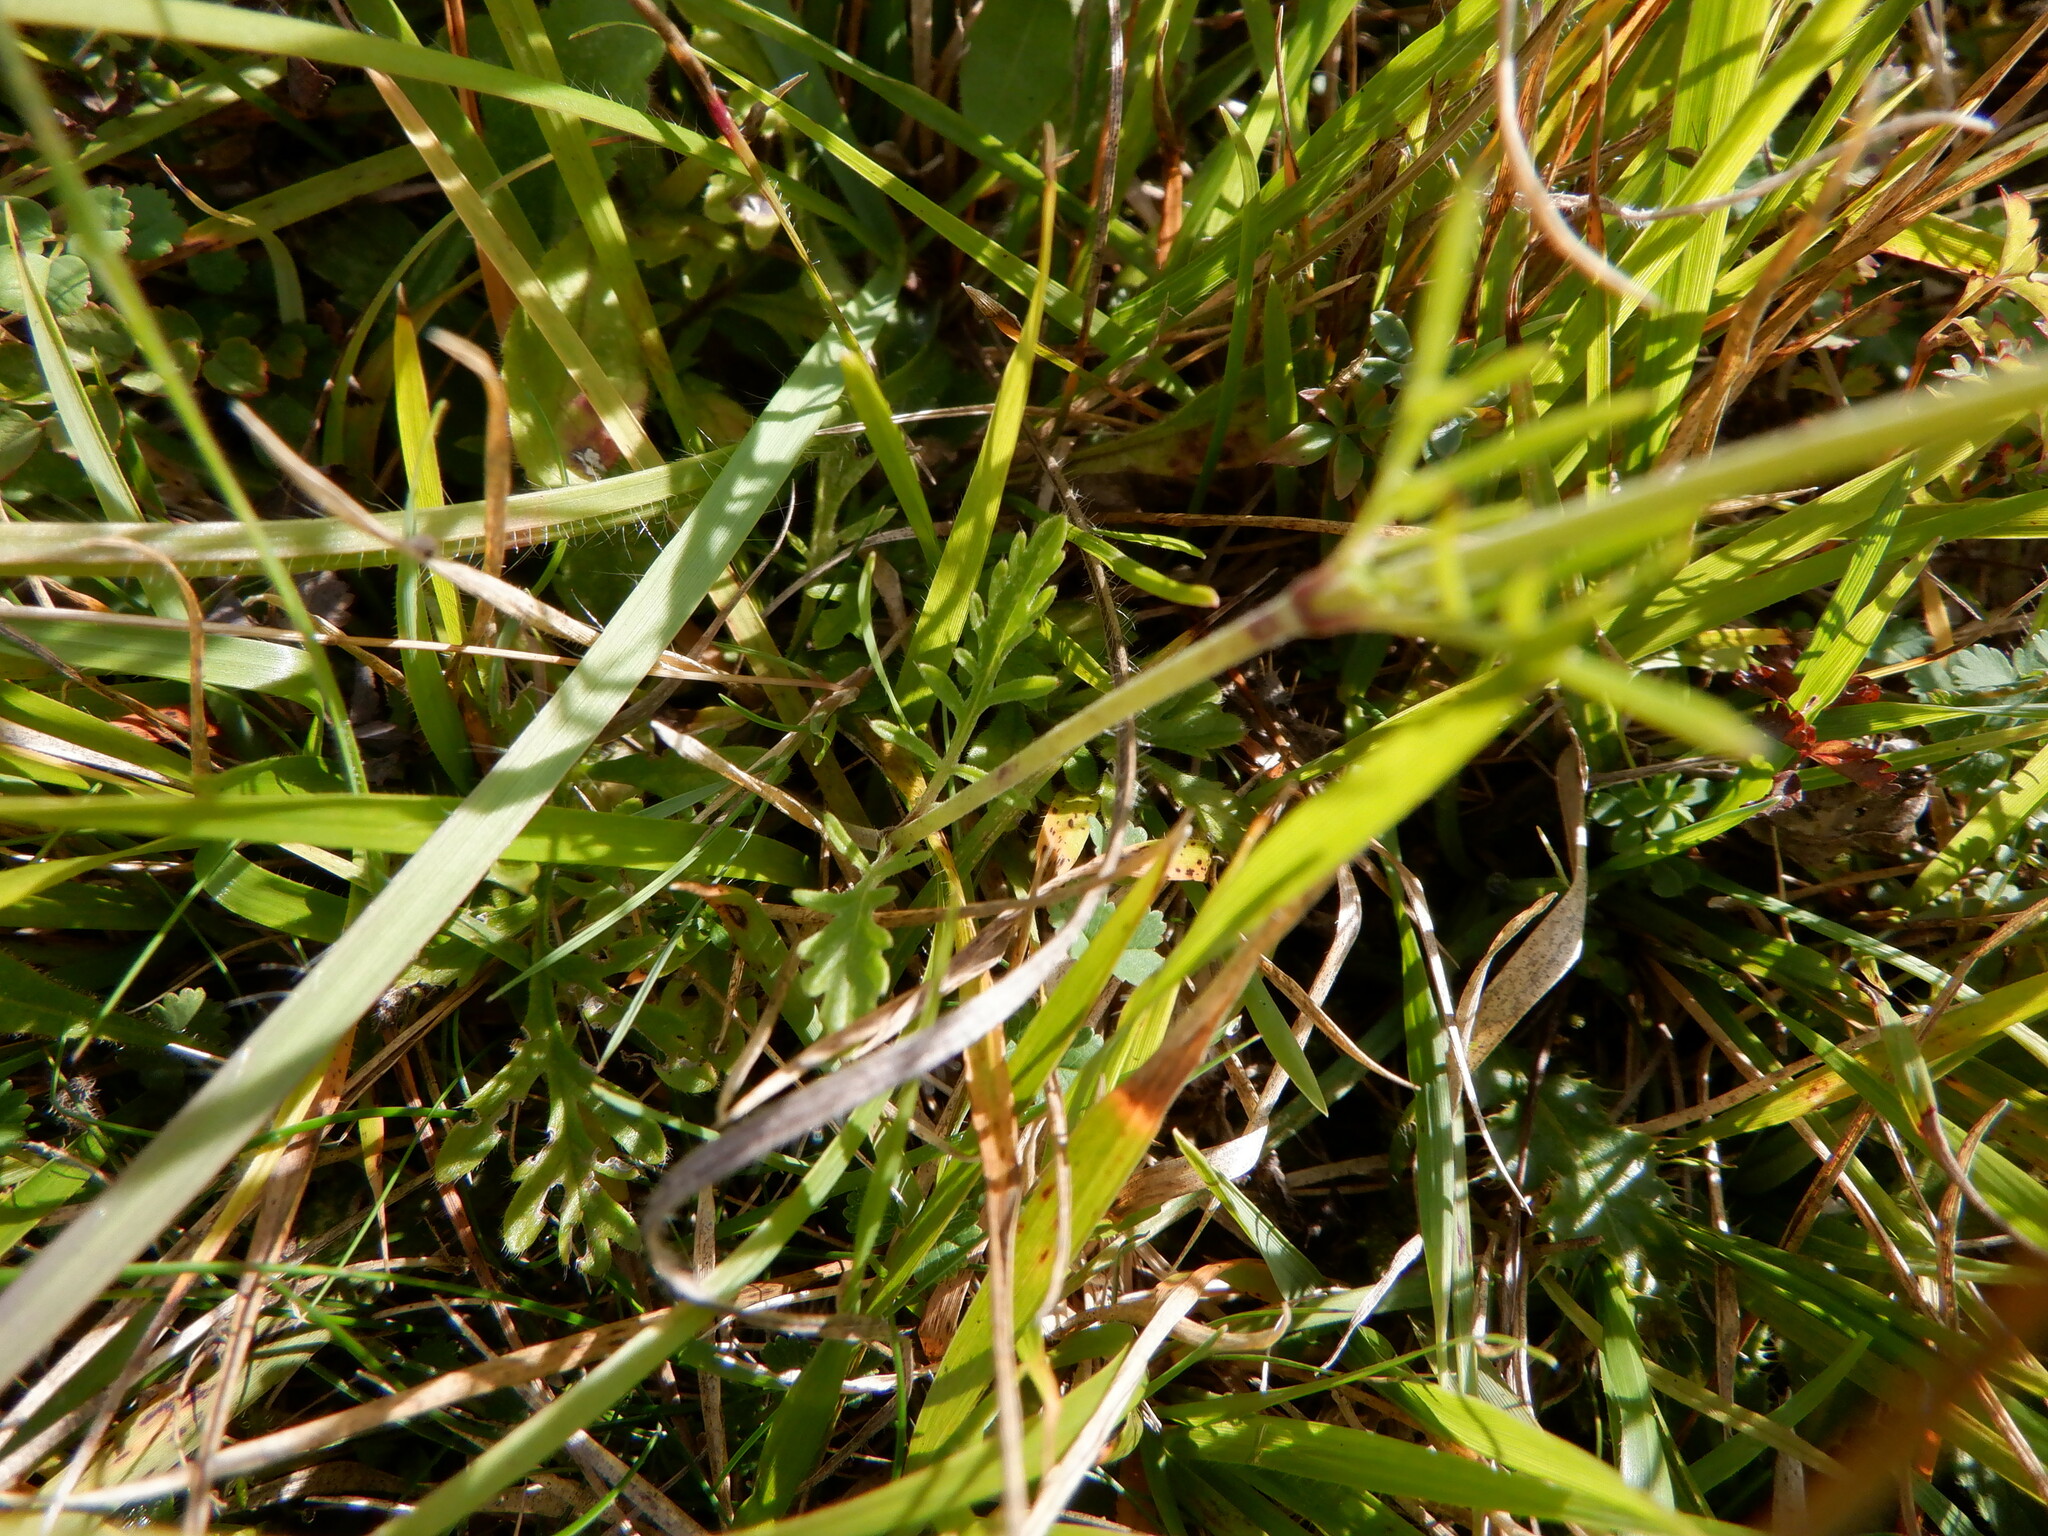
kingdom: Plantae
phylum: Tracheophyta
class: Magnoliopsida
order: Dipsacales
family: Caprifoliaceae
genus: Scabiosa
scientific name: Scabiosa columbaria
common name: Small scabious
